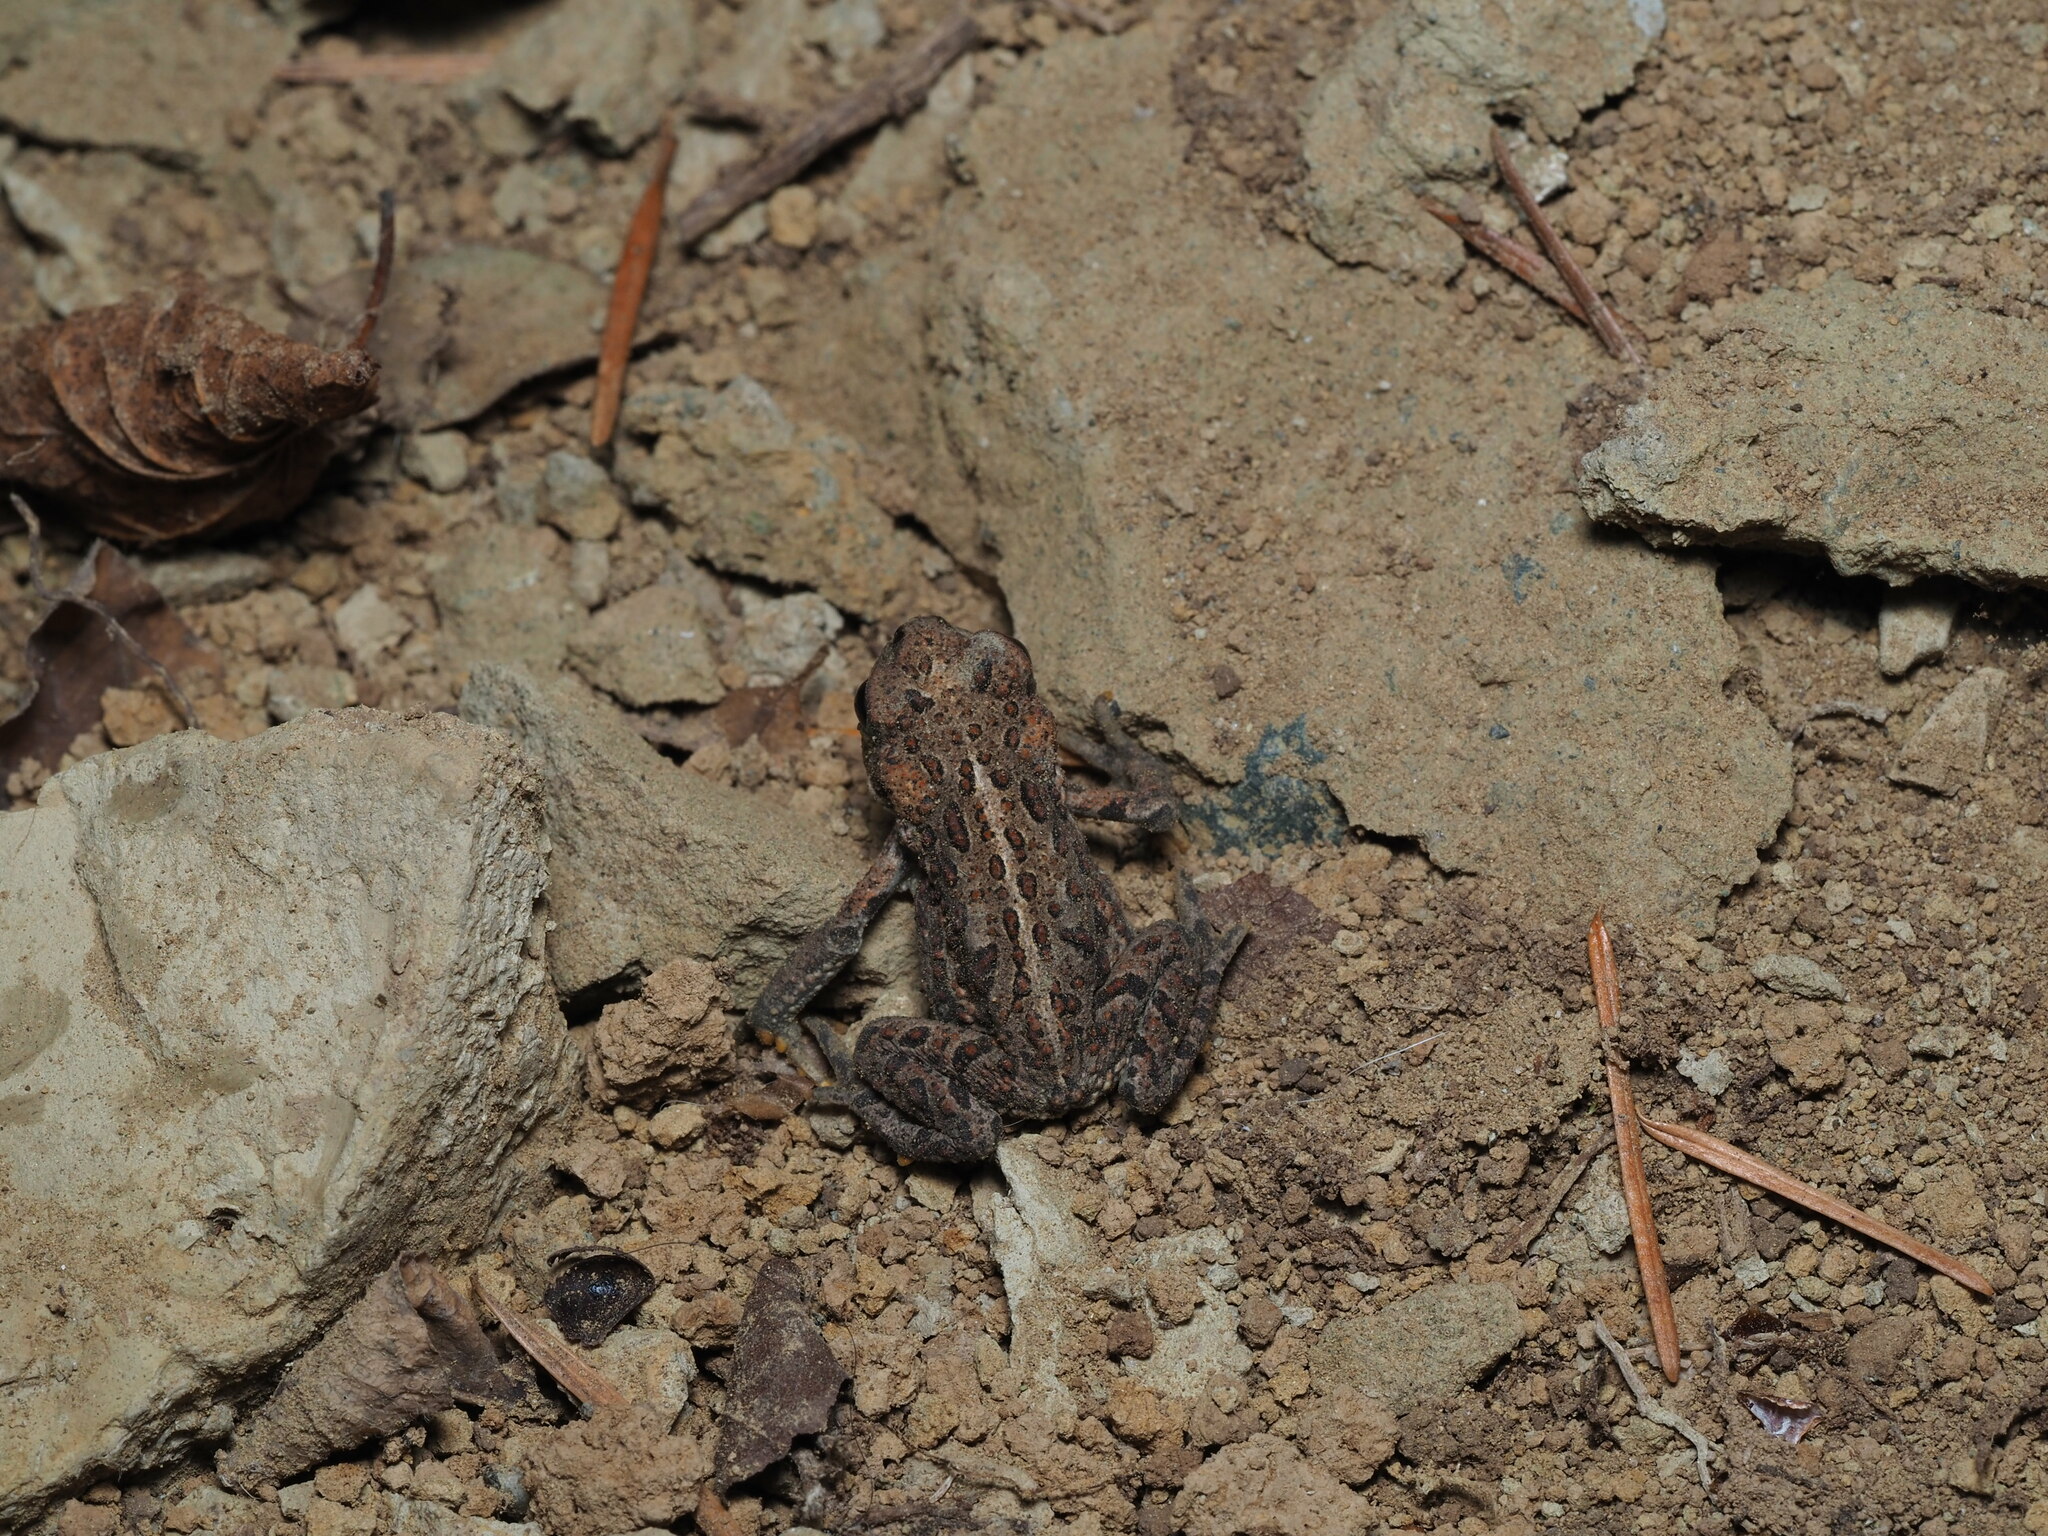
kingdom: Animalia
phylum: Chordata
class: Amphibia
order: Anura
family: Bufonidae
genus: Anaxyrus
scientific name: Anaxyrus boreas
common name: Western toad
